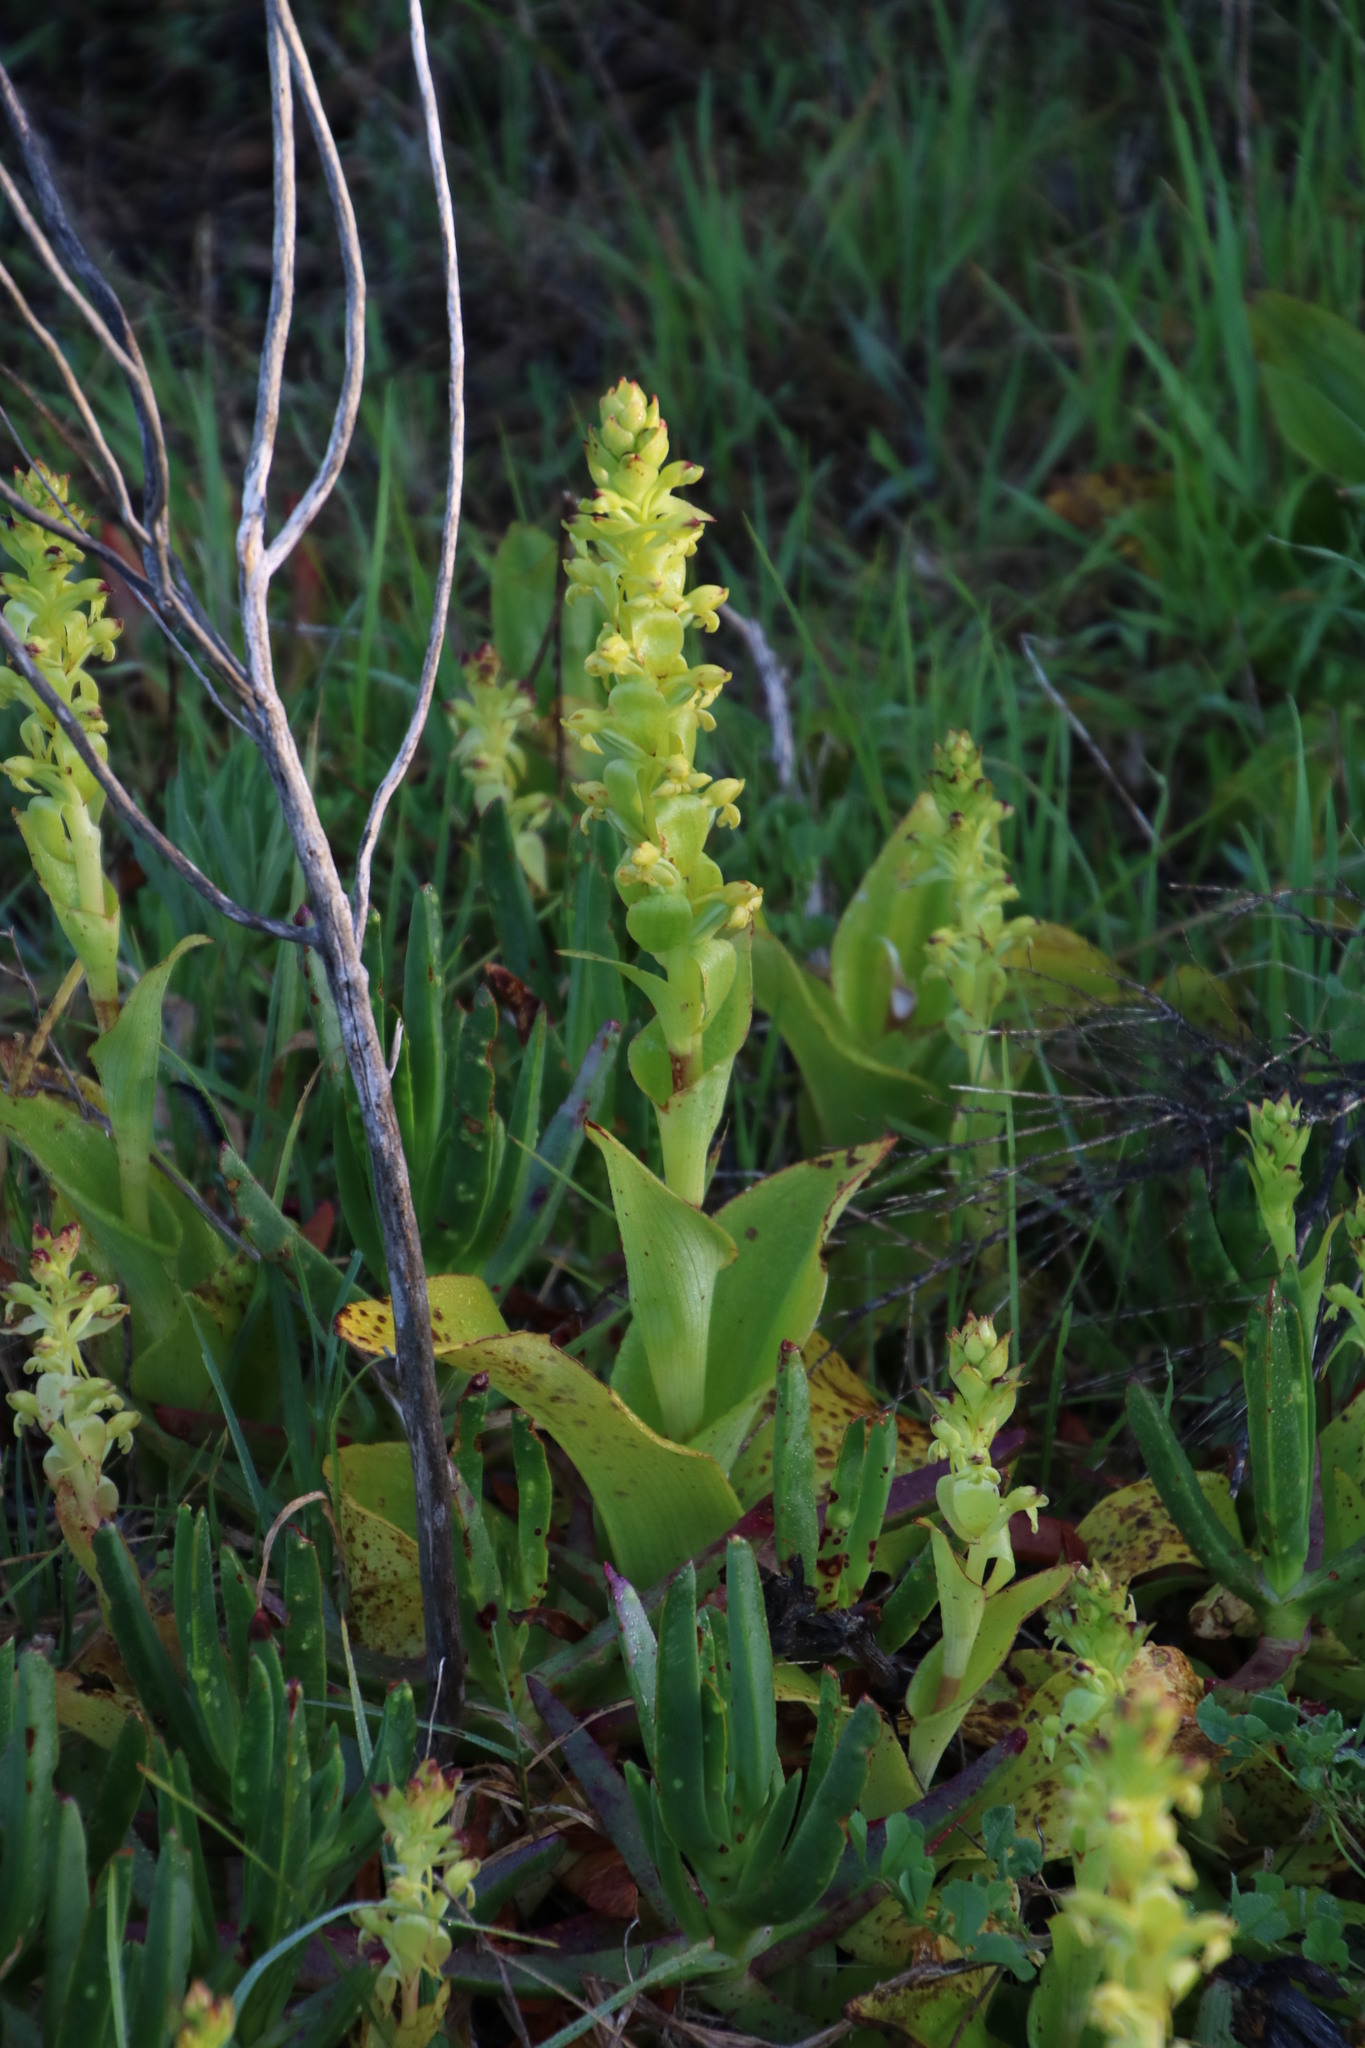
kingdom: Plantae
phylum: Tracheophyta
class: Liliopsida
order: Asparagales
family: Orchidaceae
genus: Satyrium
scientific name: Satyrium odorum
